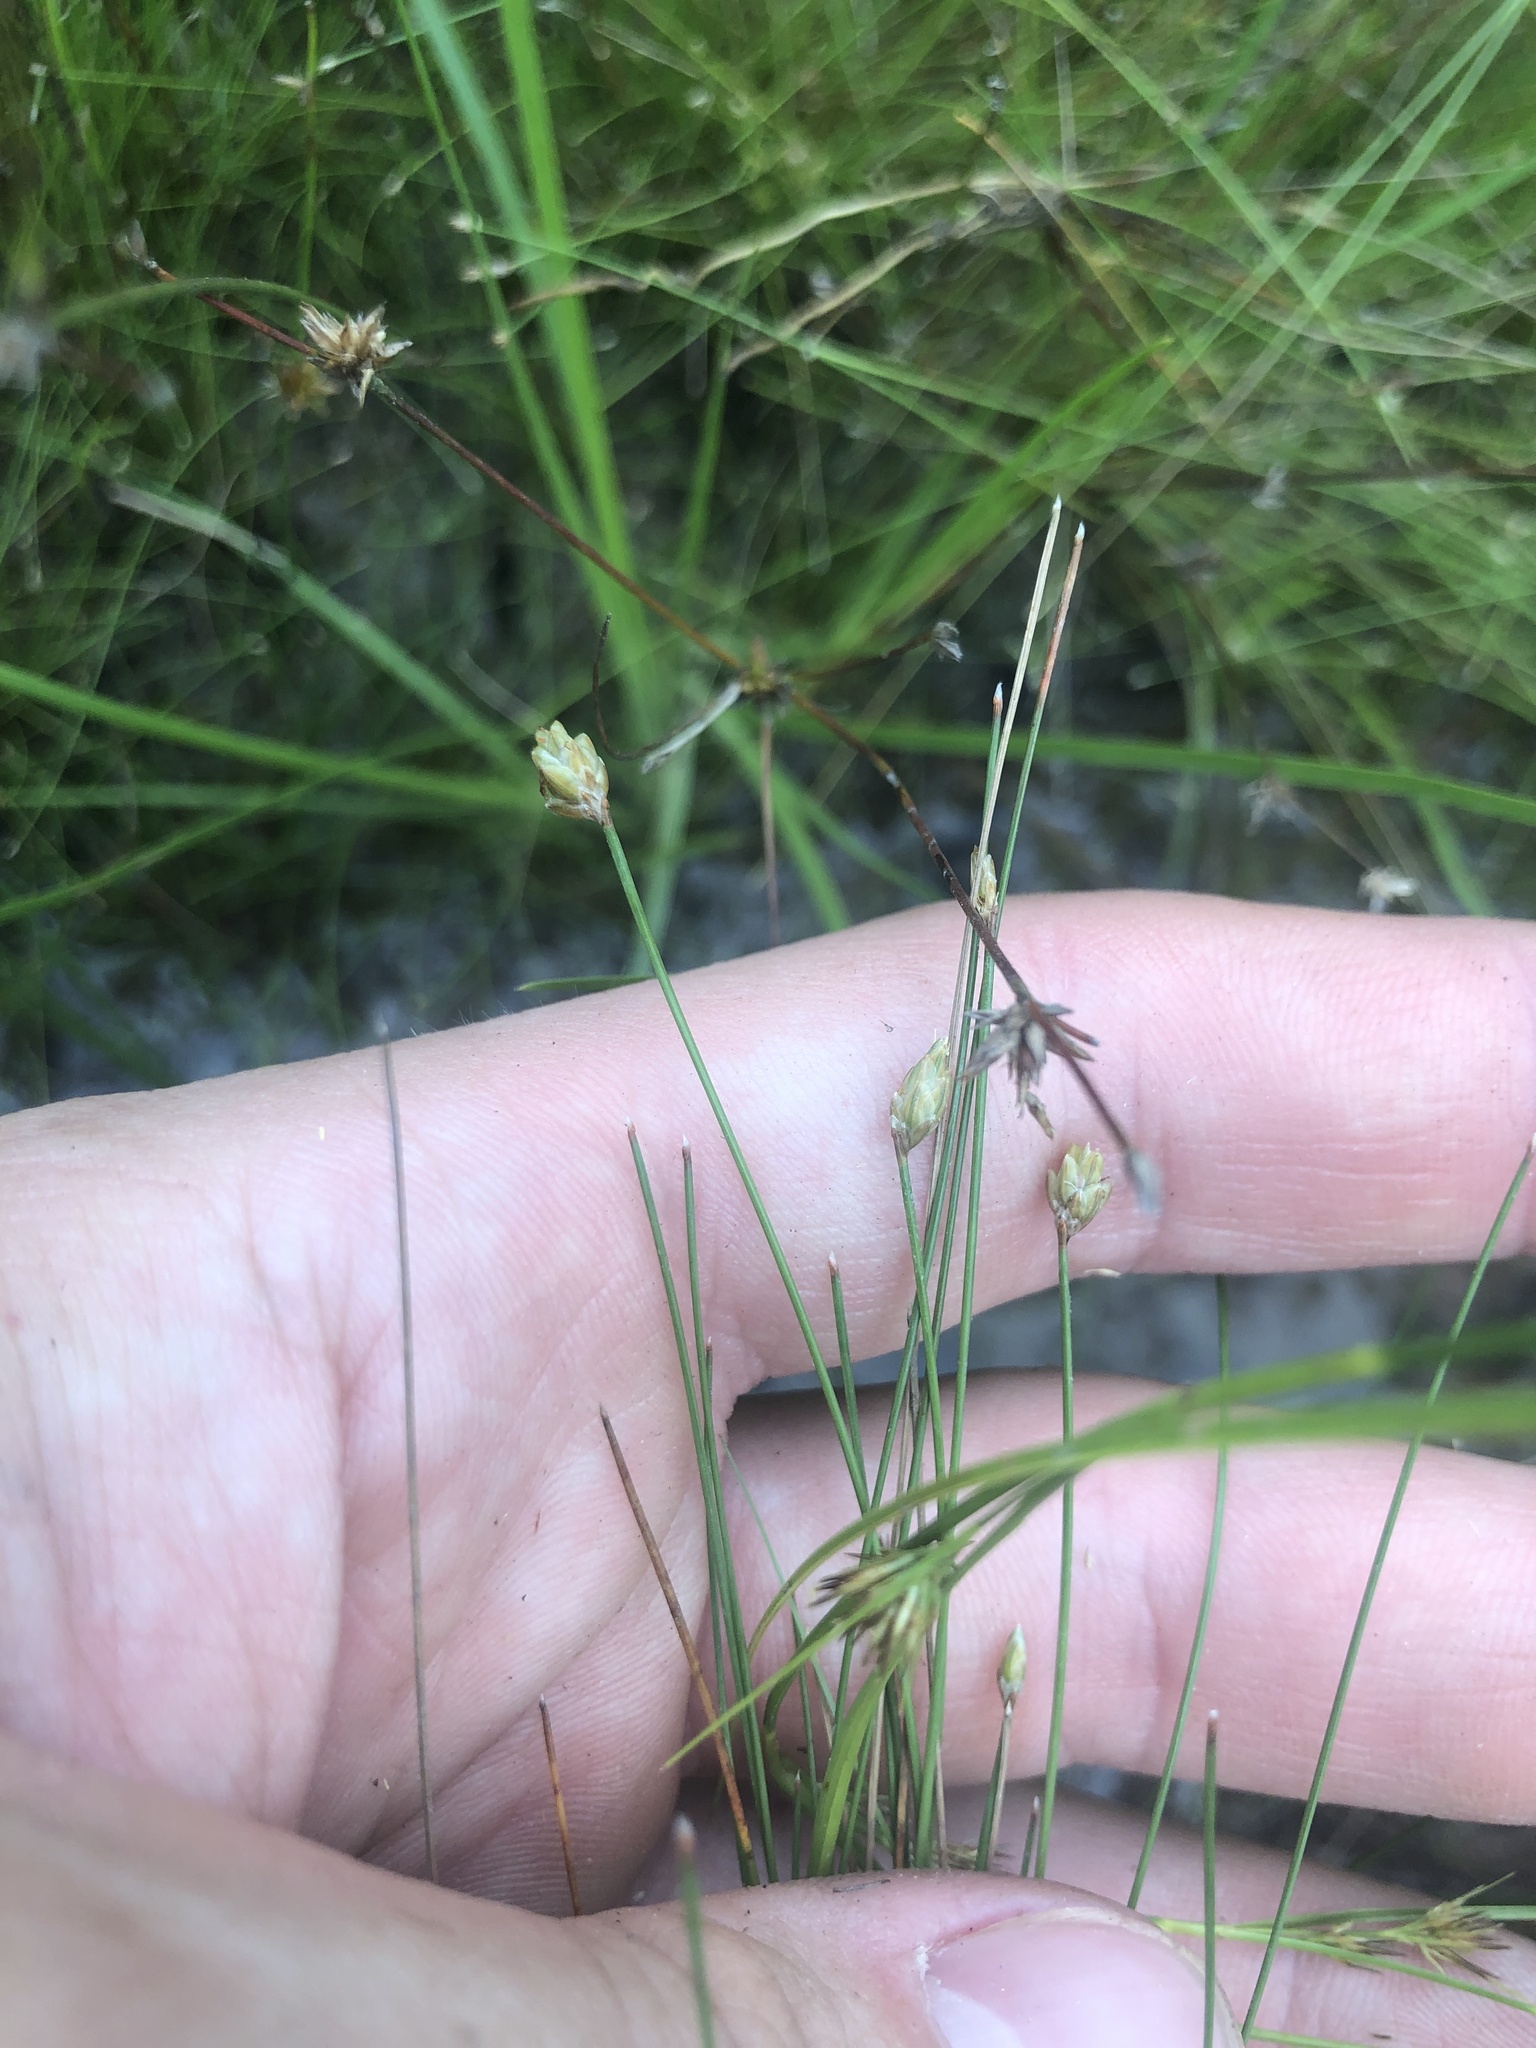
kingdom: Plantae
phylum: Tracheophyta
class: Liliopsida
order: Poales
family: Cyperaceae
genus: Eleocharis
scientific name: Eleocharis tuberculosa
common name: Cone-cup spikerush
